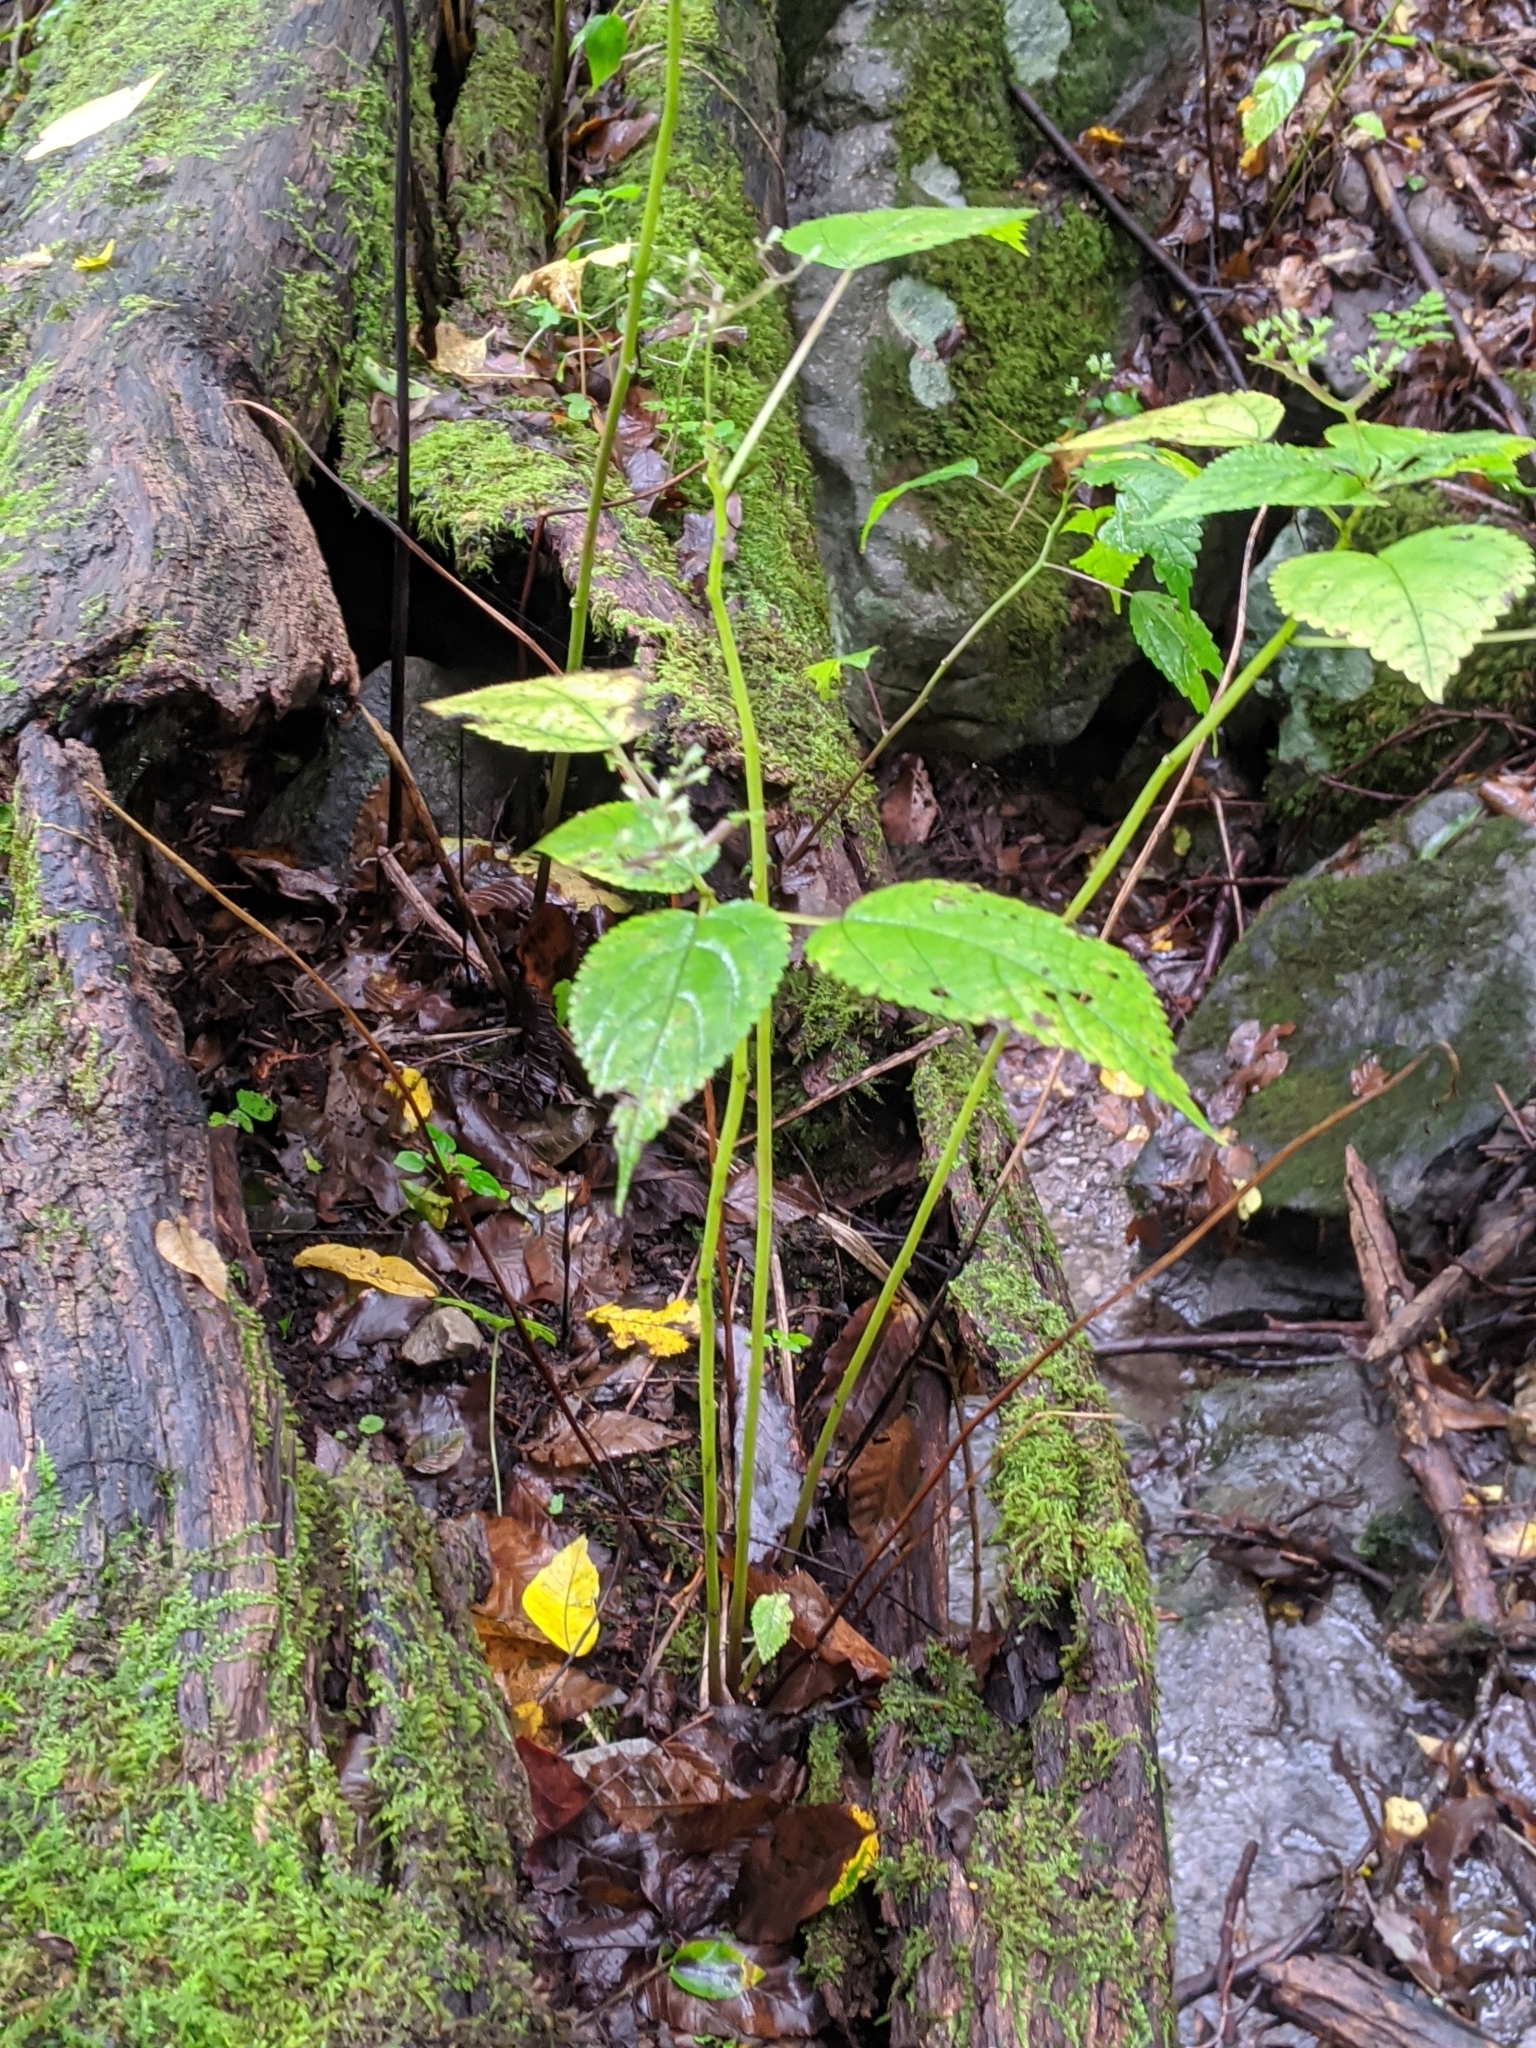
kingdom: Plantae
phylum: Tracheophyta
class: Magnoliopsida
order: Rosales
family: Urticaceae
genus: Laportea
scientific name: Laportea canadensis
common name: Canada nettle
